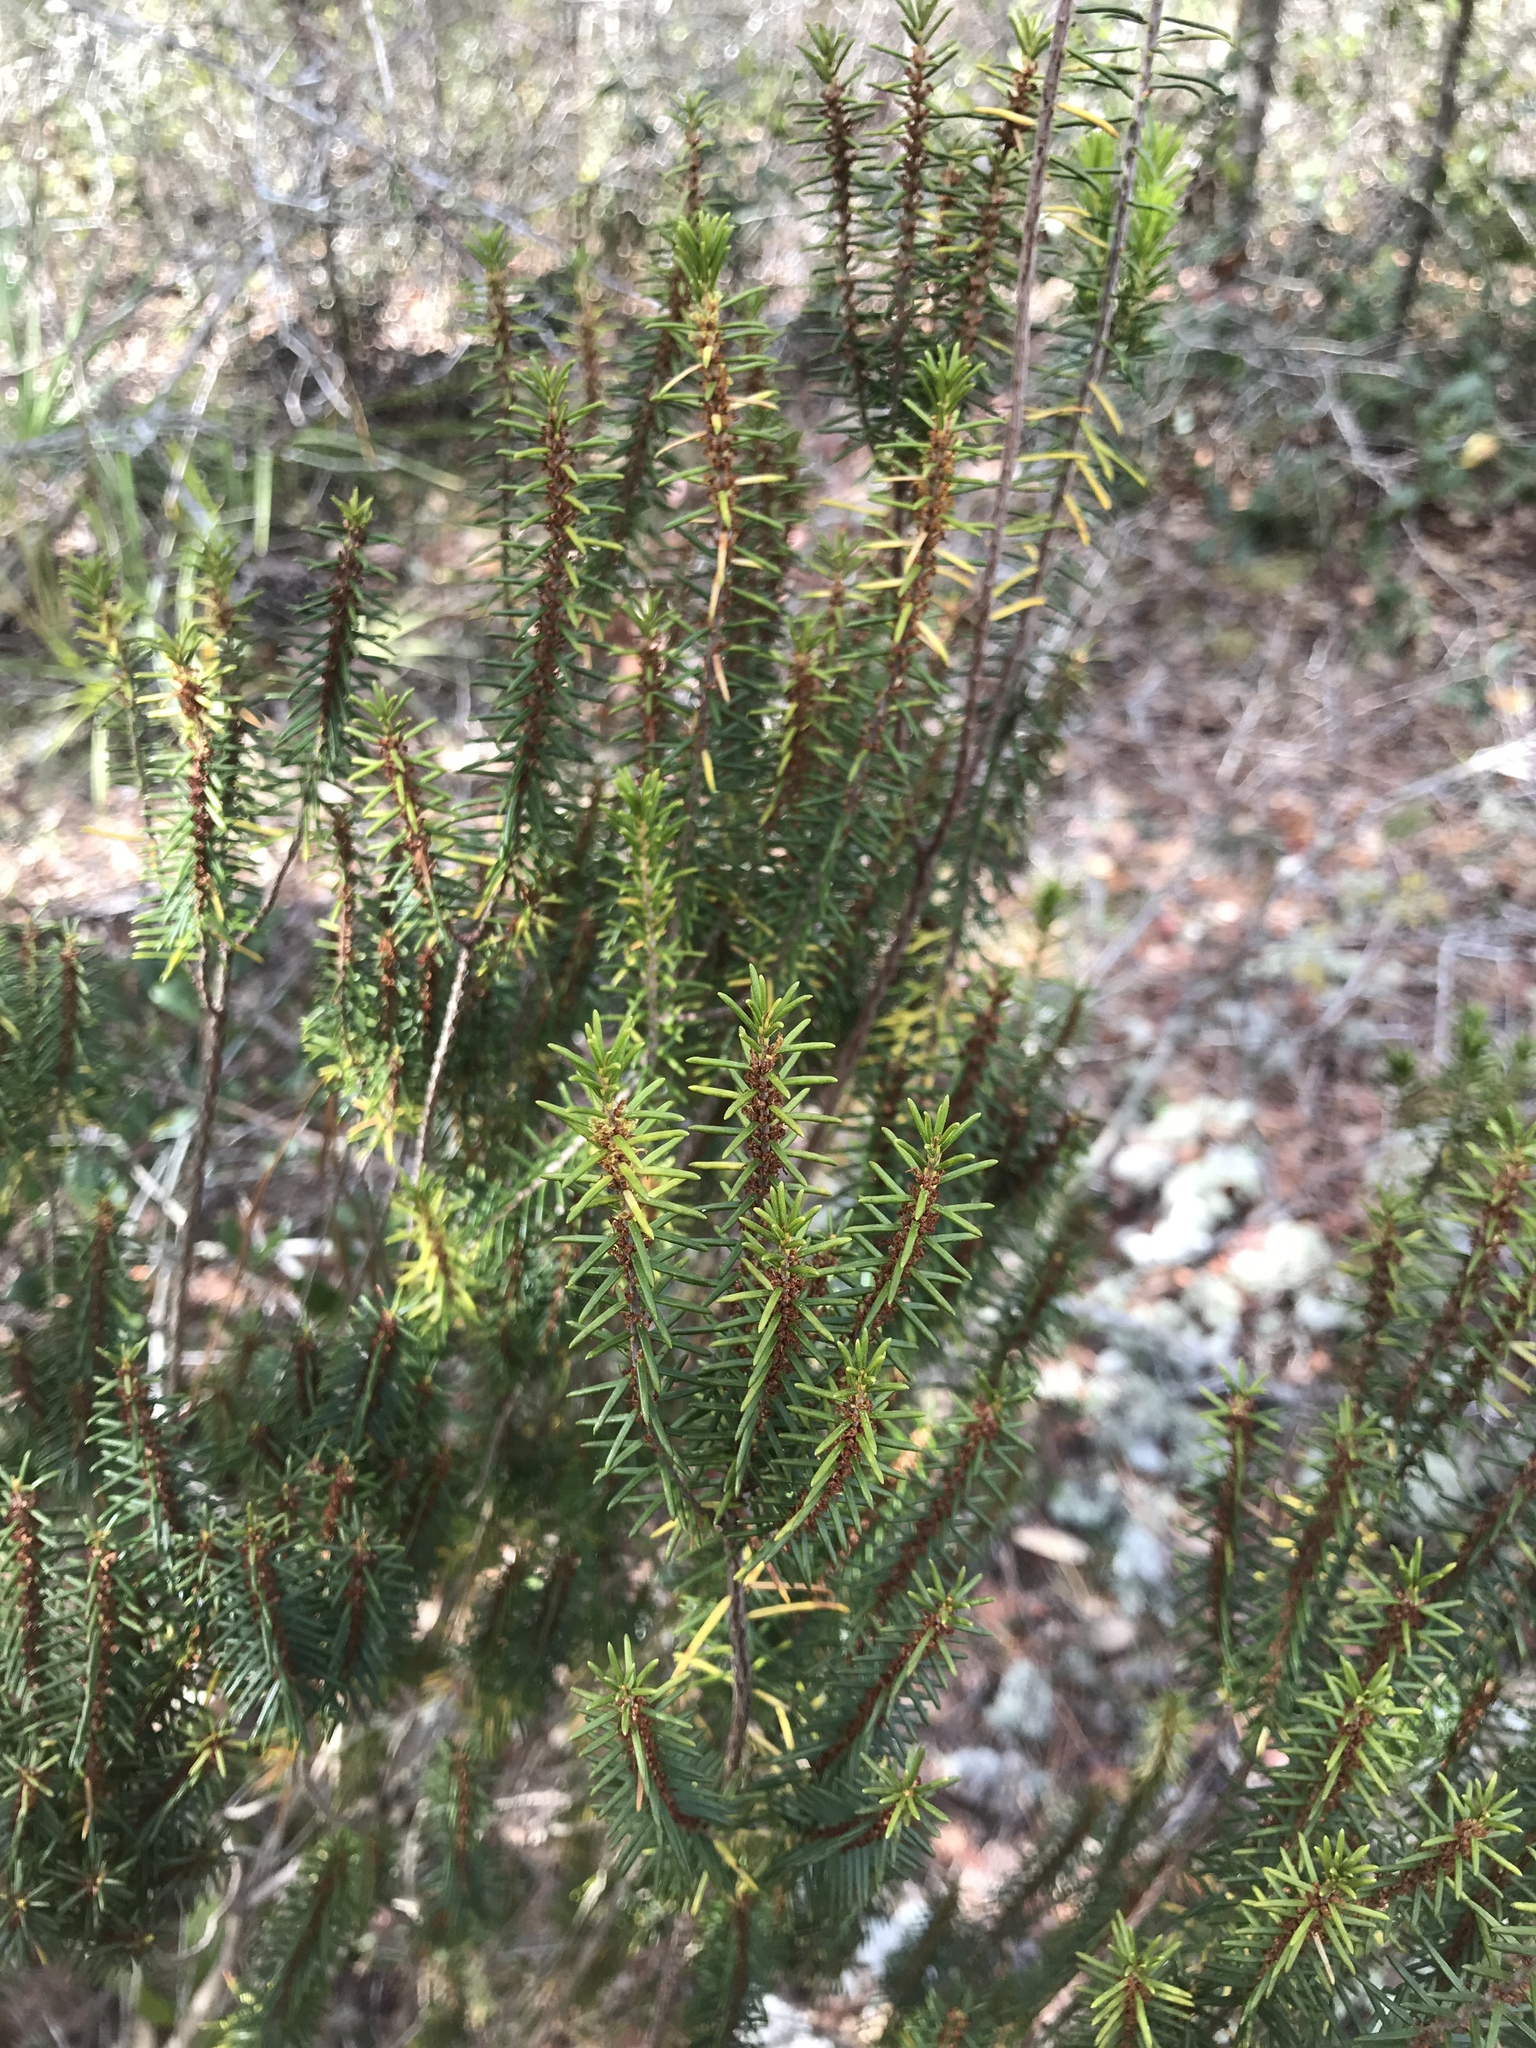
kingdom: Plantae
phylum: Tracheophyta
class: Magnoliopsida
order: Ericales
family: Ericaceae
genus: Ceratiola
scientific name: Ceratiola ericoides
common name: Sandhill-rosemary
